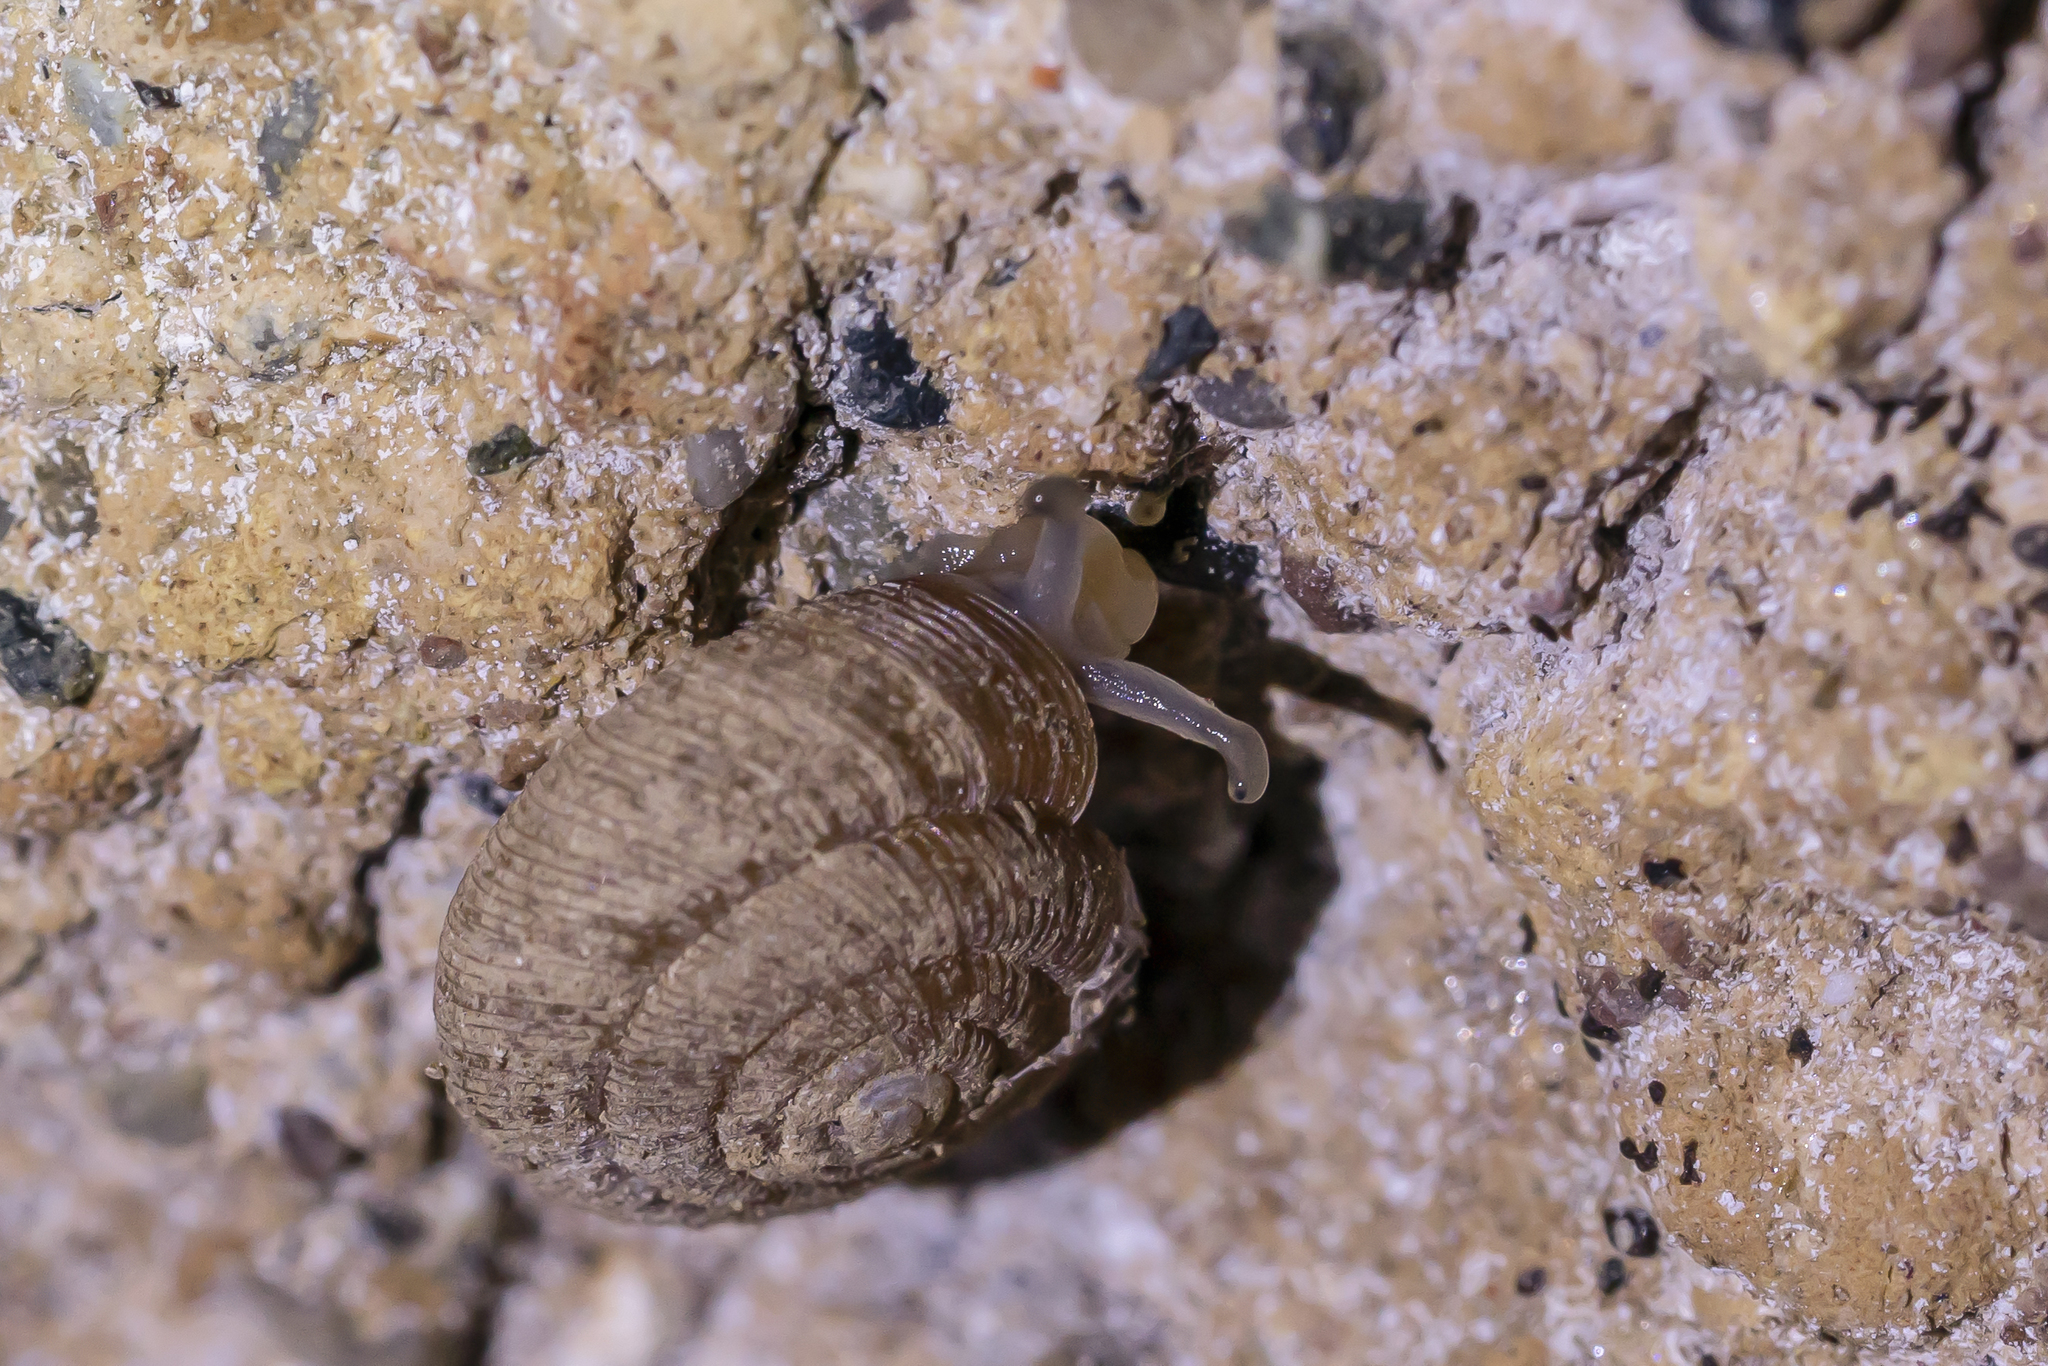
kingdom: Animalia
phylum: Mollusca
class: Gastropoda
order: Stylommatophora
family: Pleurodiscidae
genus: Pleurodiscus
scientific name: Pleurodiscus balmei
